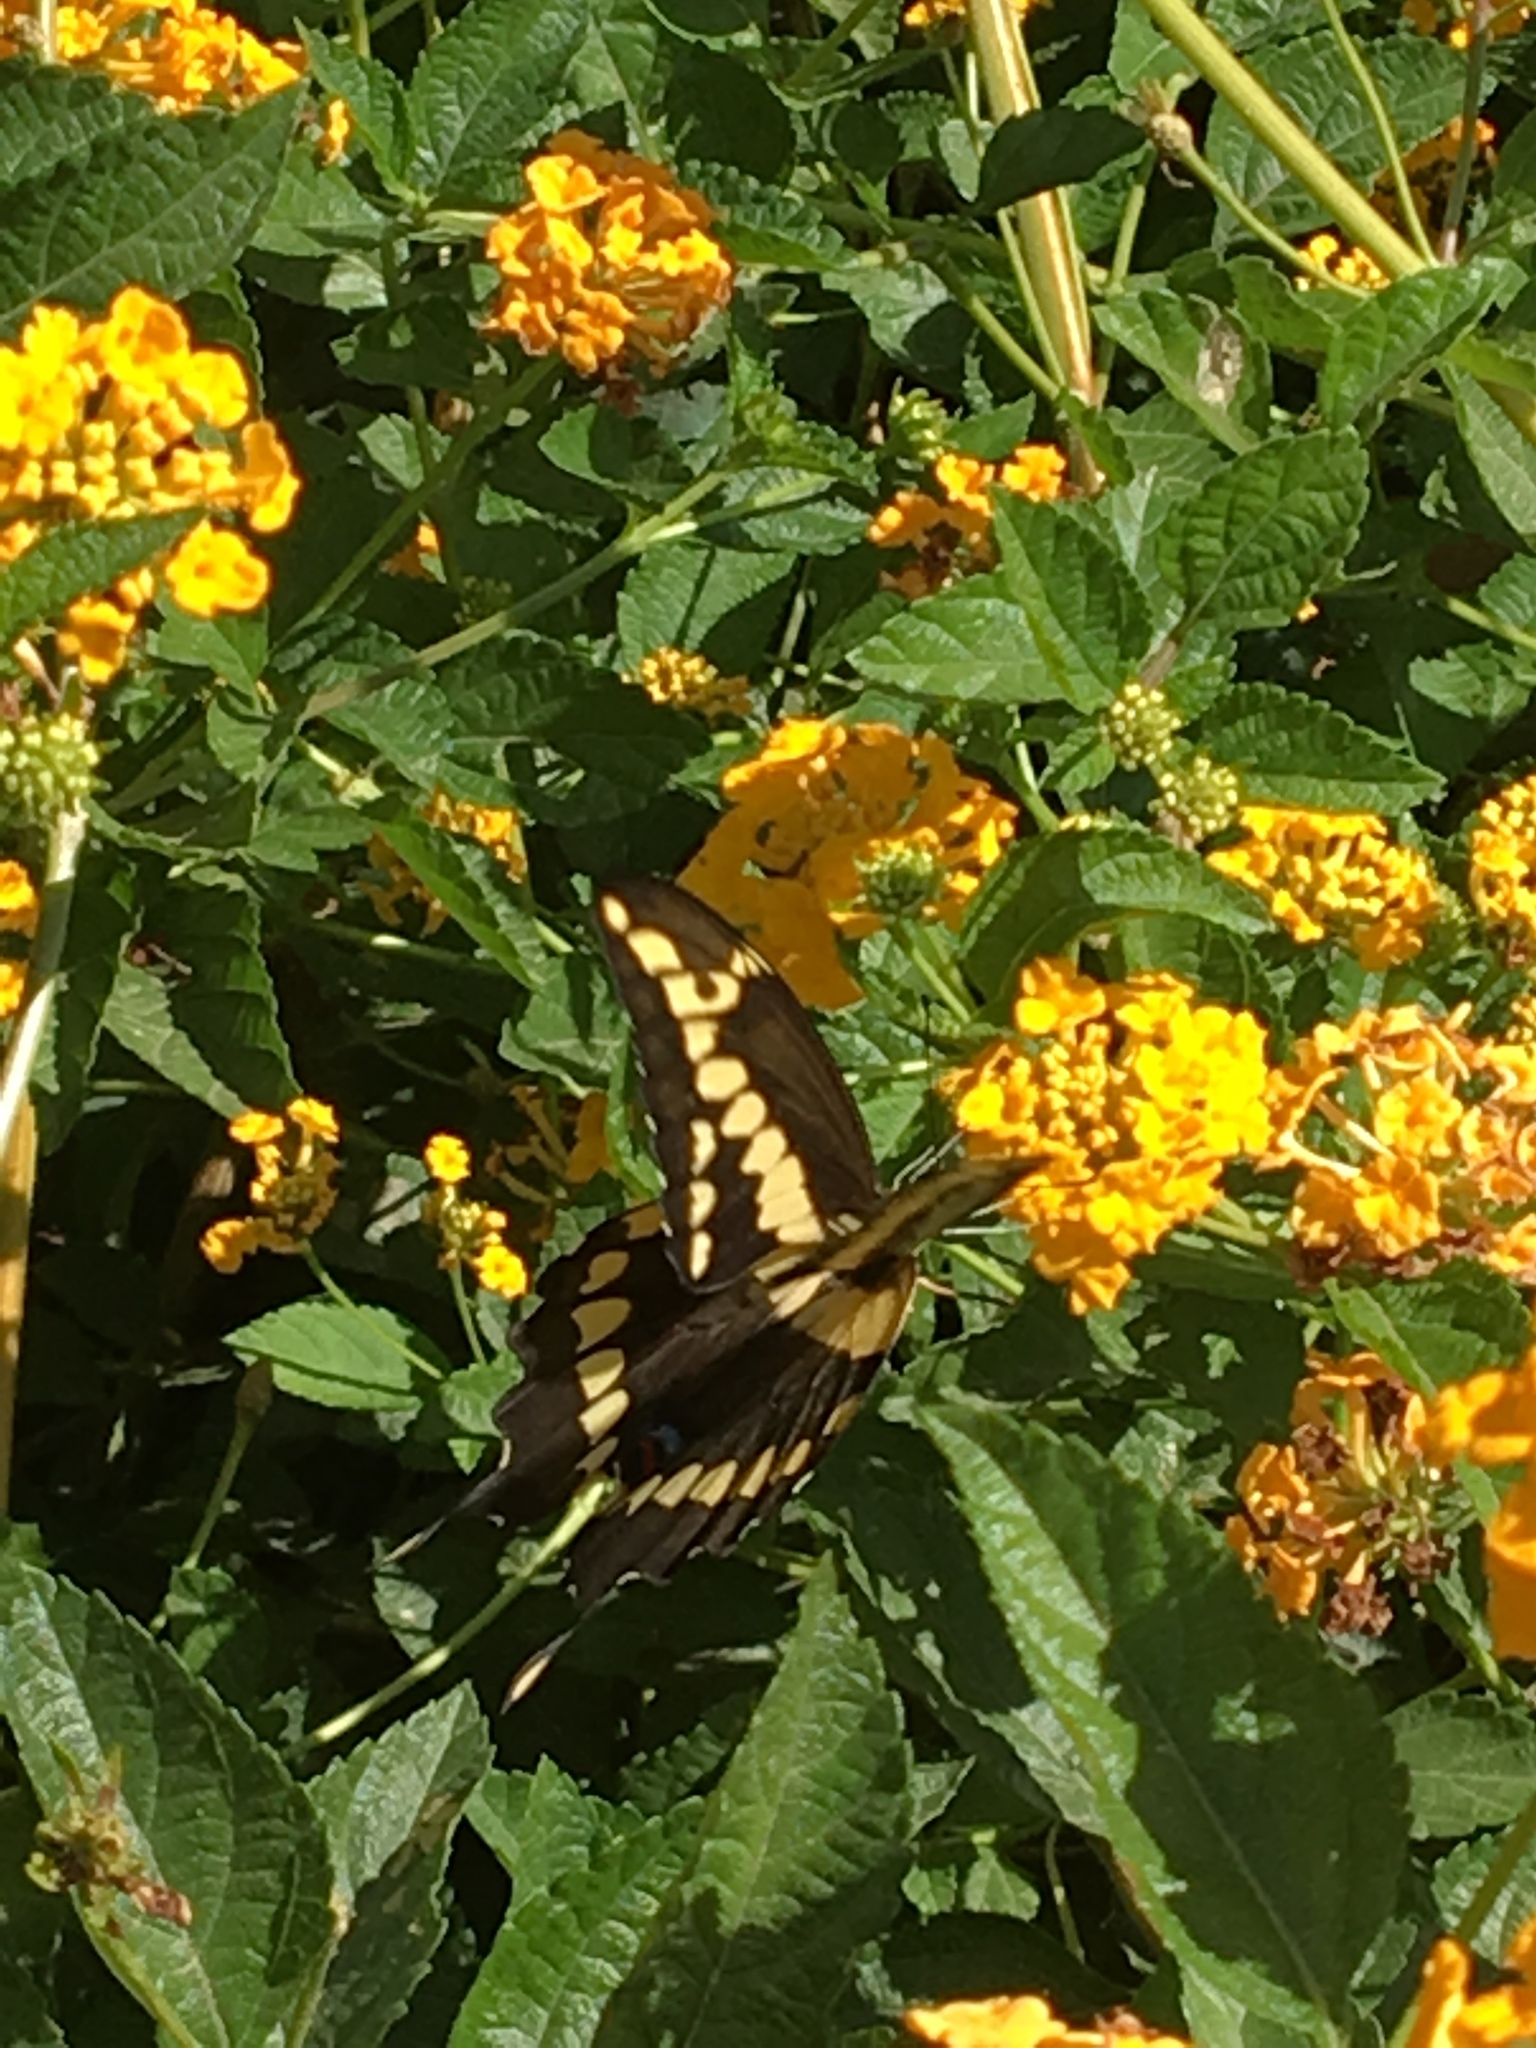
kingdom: Animalia
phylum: Arthropoda
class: Insecta
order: Lepidoptera
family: Papilionidae
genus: Papilio
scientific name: Papilio rumiko
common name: Western giant swallowtail
